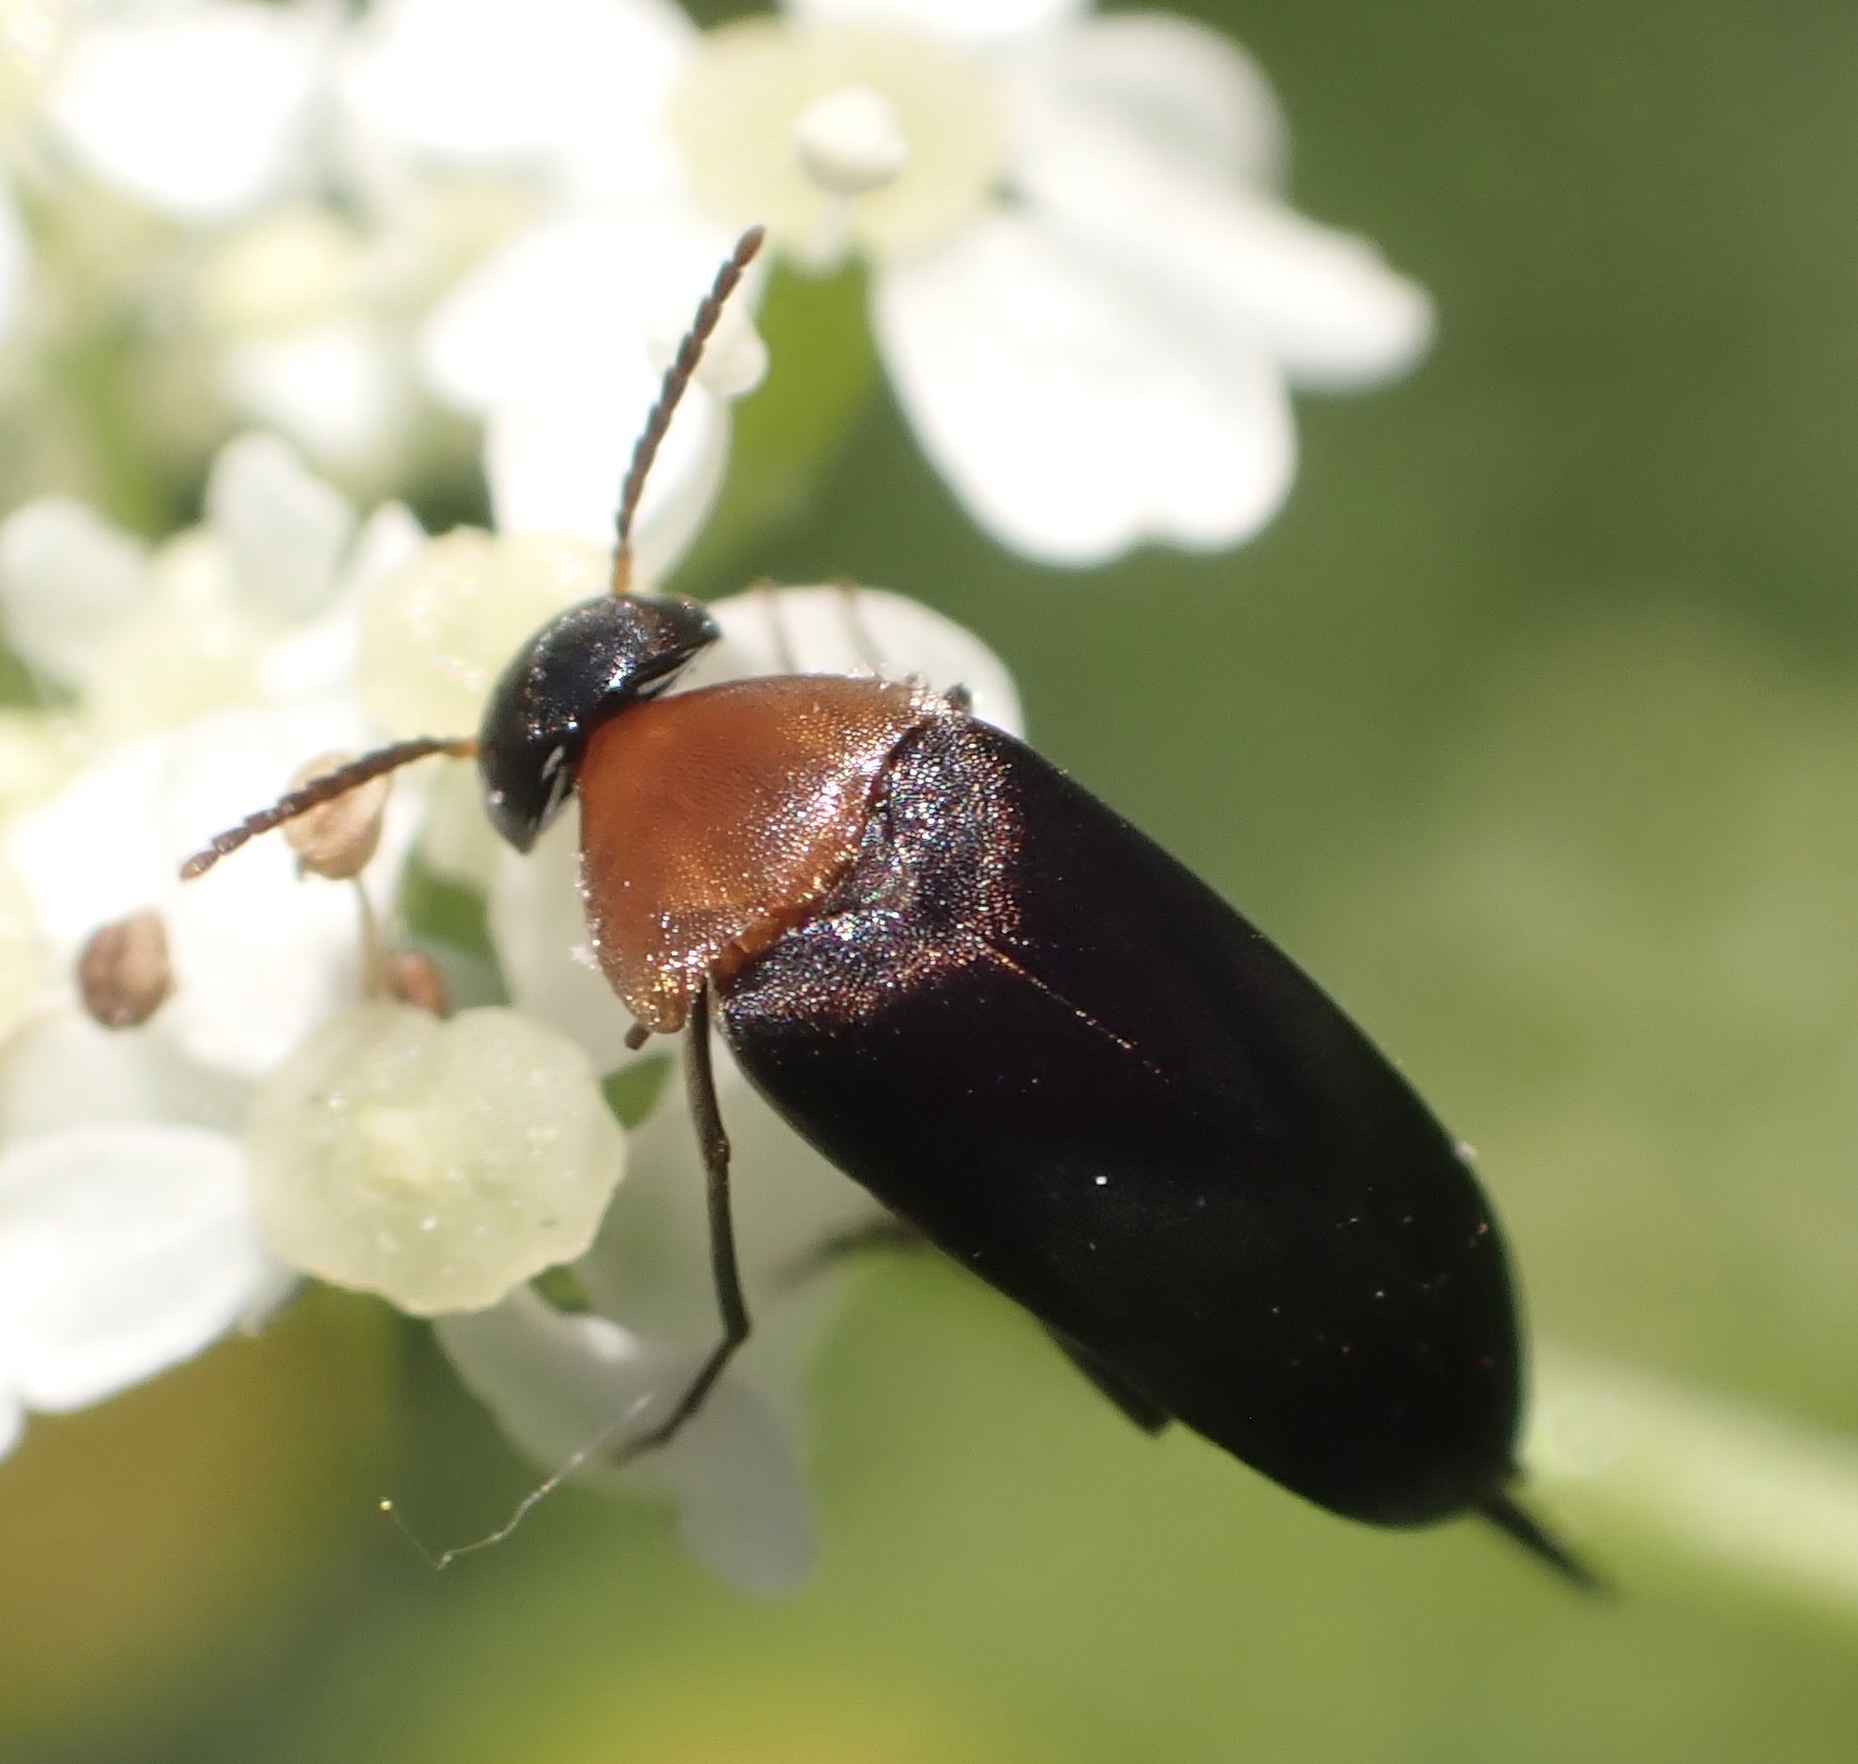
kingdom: Animalia
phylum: Arthropoda
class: Insecta
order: Coleoptera
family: Mordellidae
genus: Mordellochroa
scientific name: Mordellochroa abdominalis
